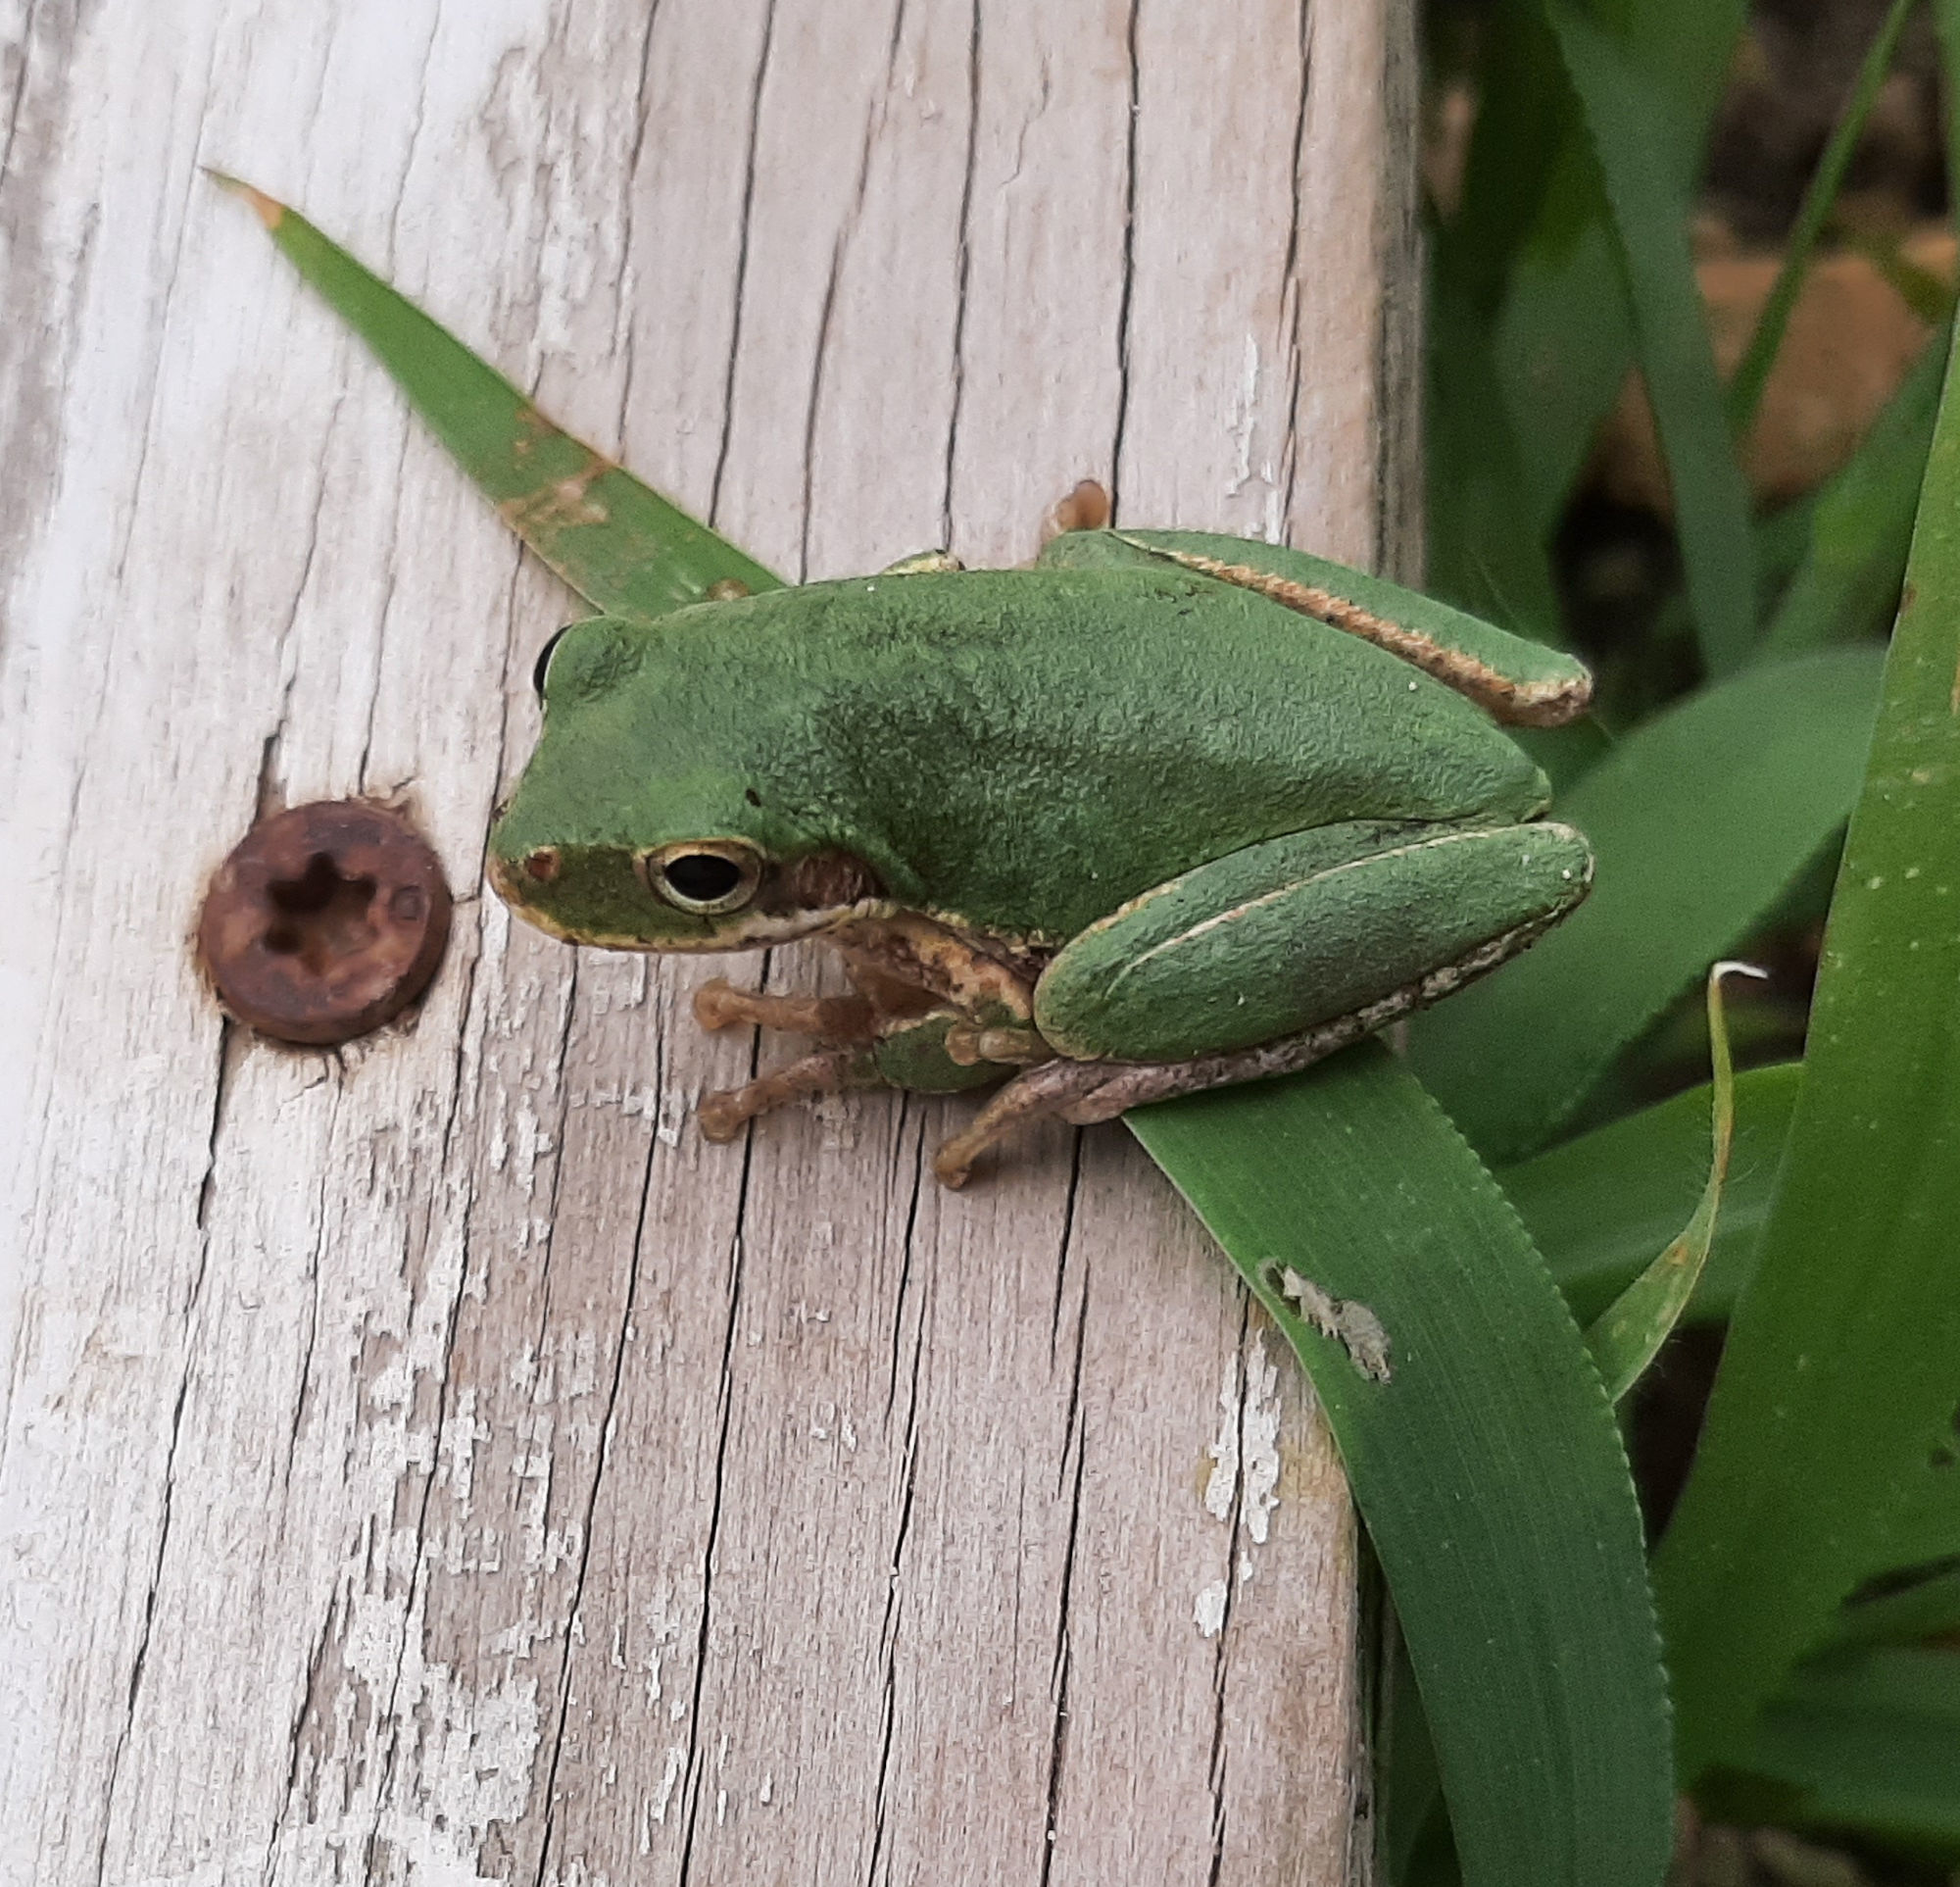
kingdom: Animalia
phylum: Chordata
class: Amphibia
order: Anura
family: Hylidae
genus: Dryophytes
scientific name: Dryophytes squirellus
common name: Squirrel treefrog
